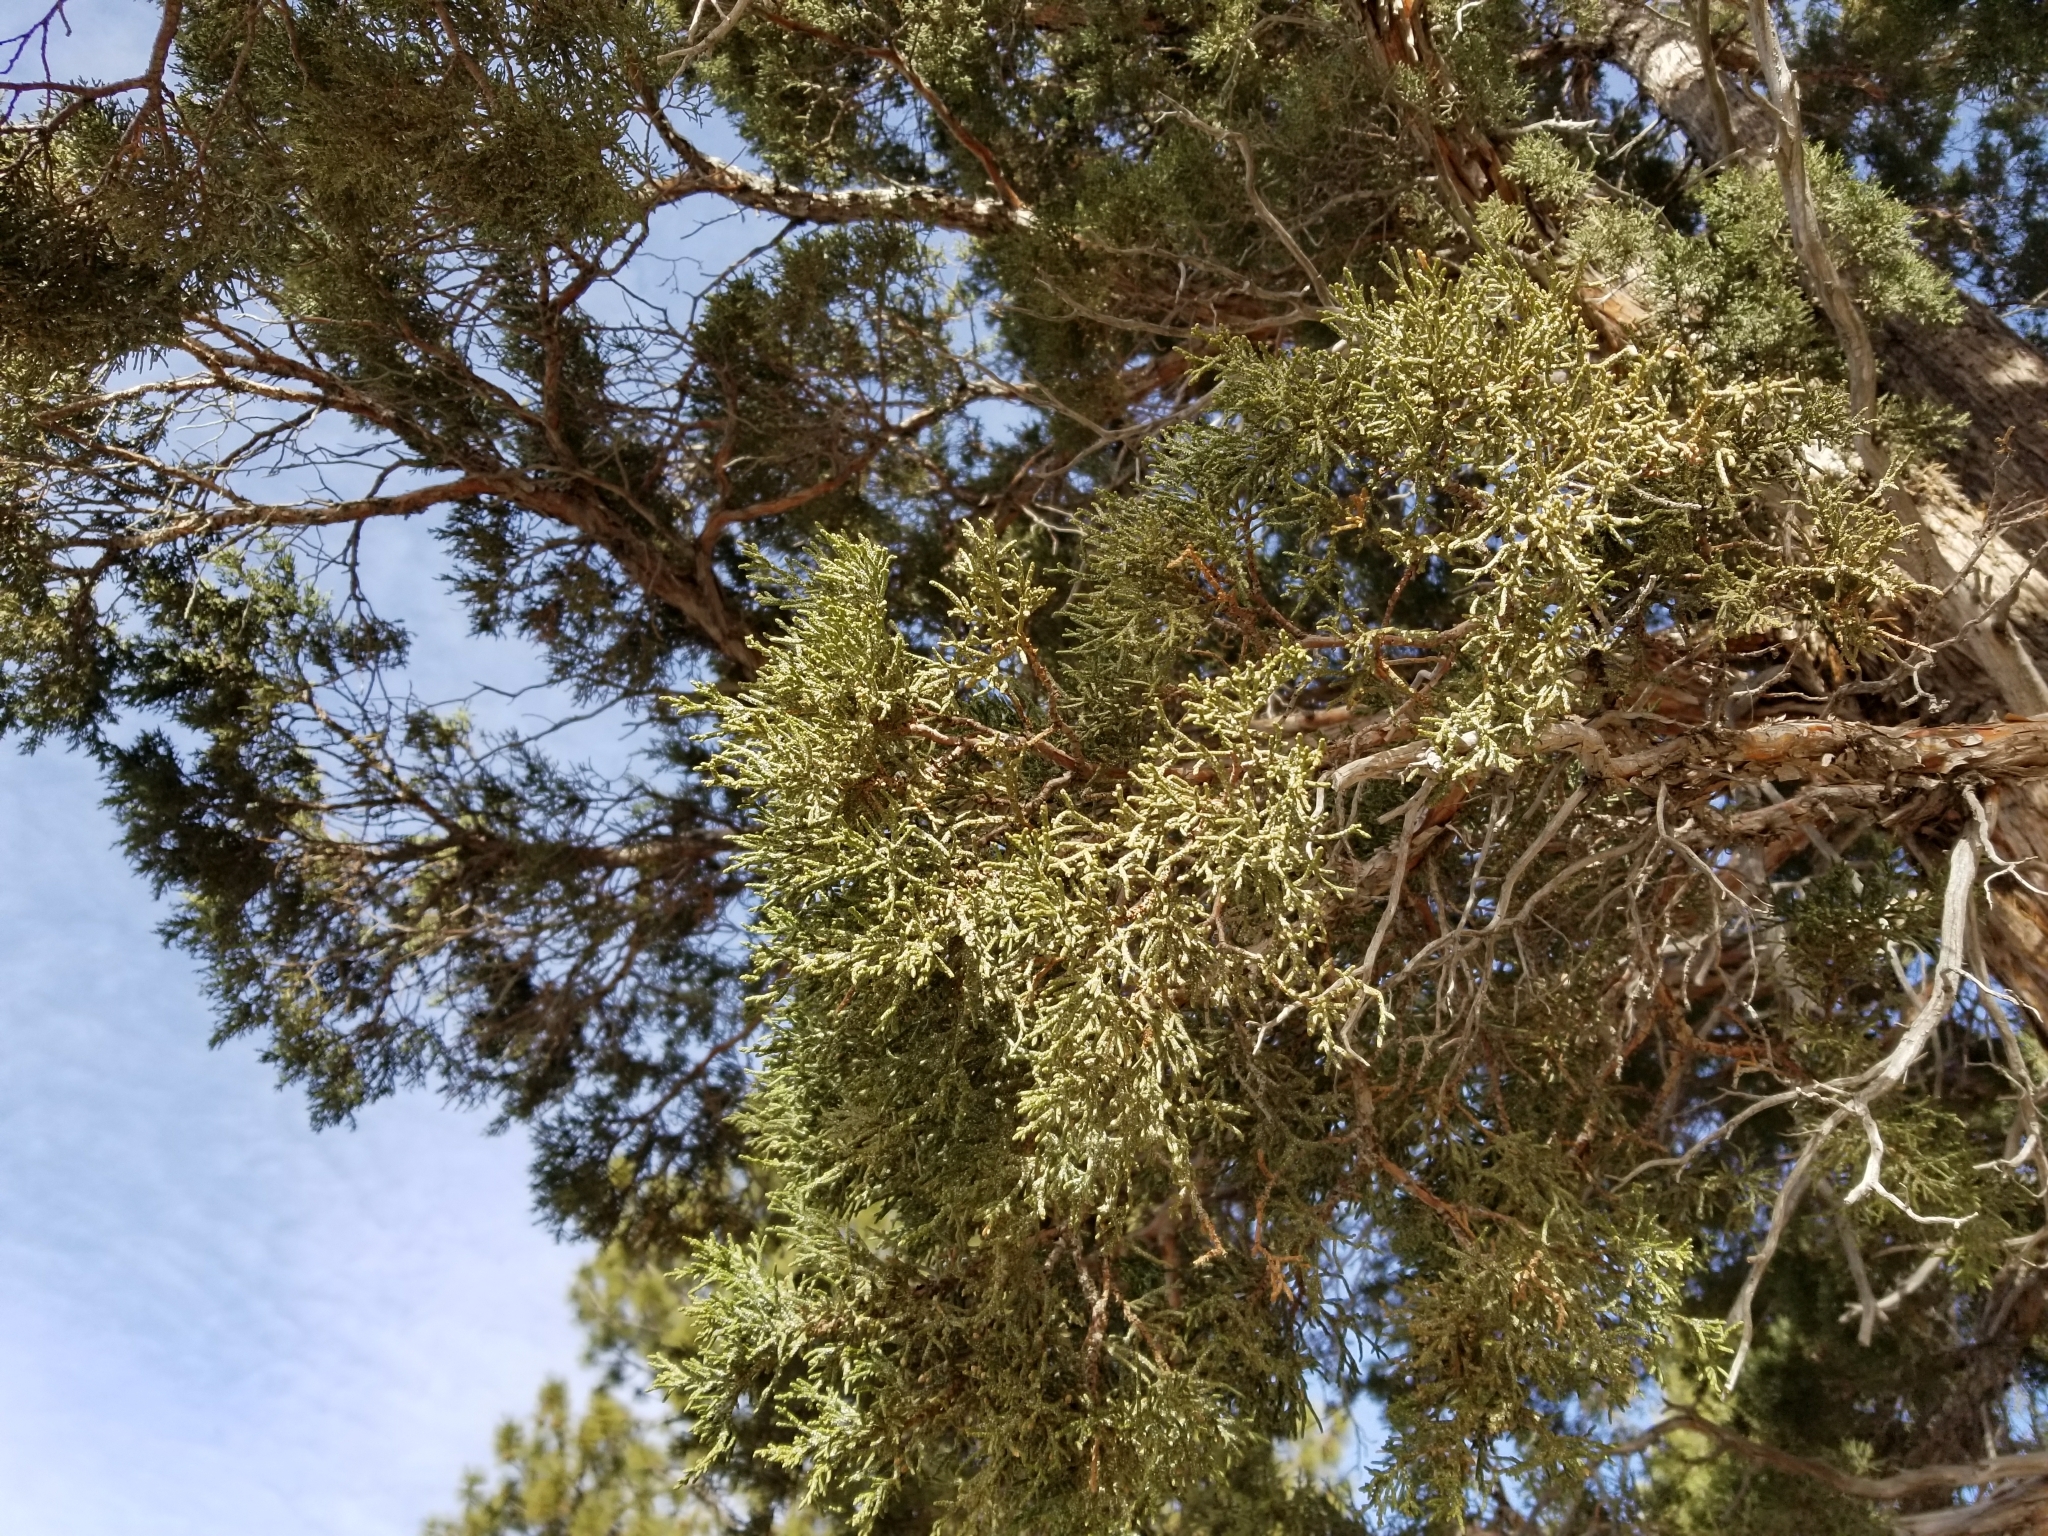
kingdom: Plantae
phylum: Tracheophyta
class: Pinopsida
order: Pinales
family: Cupressaceae
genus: Juniperus
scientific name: Juniperus occidentalis
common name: Western juniper
